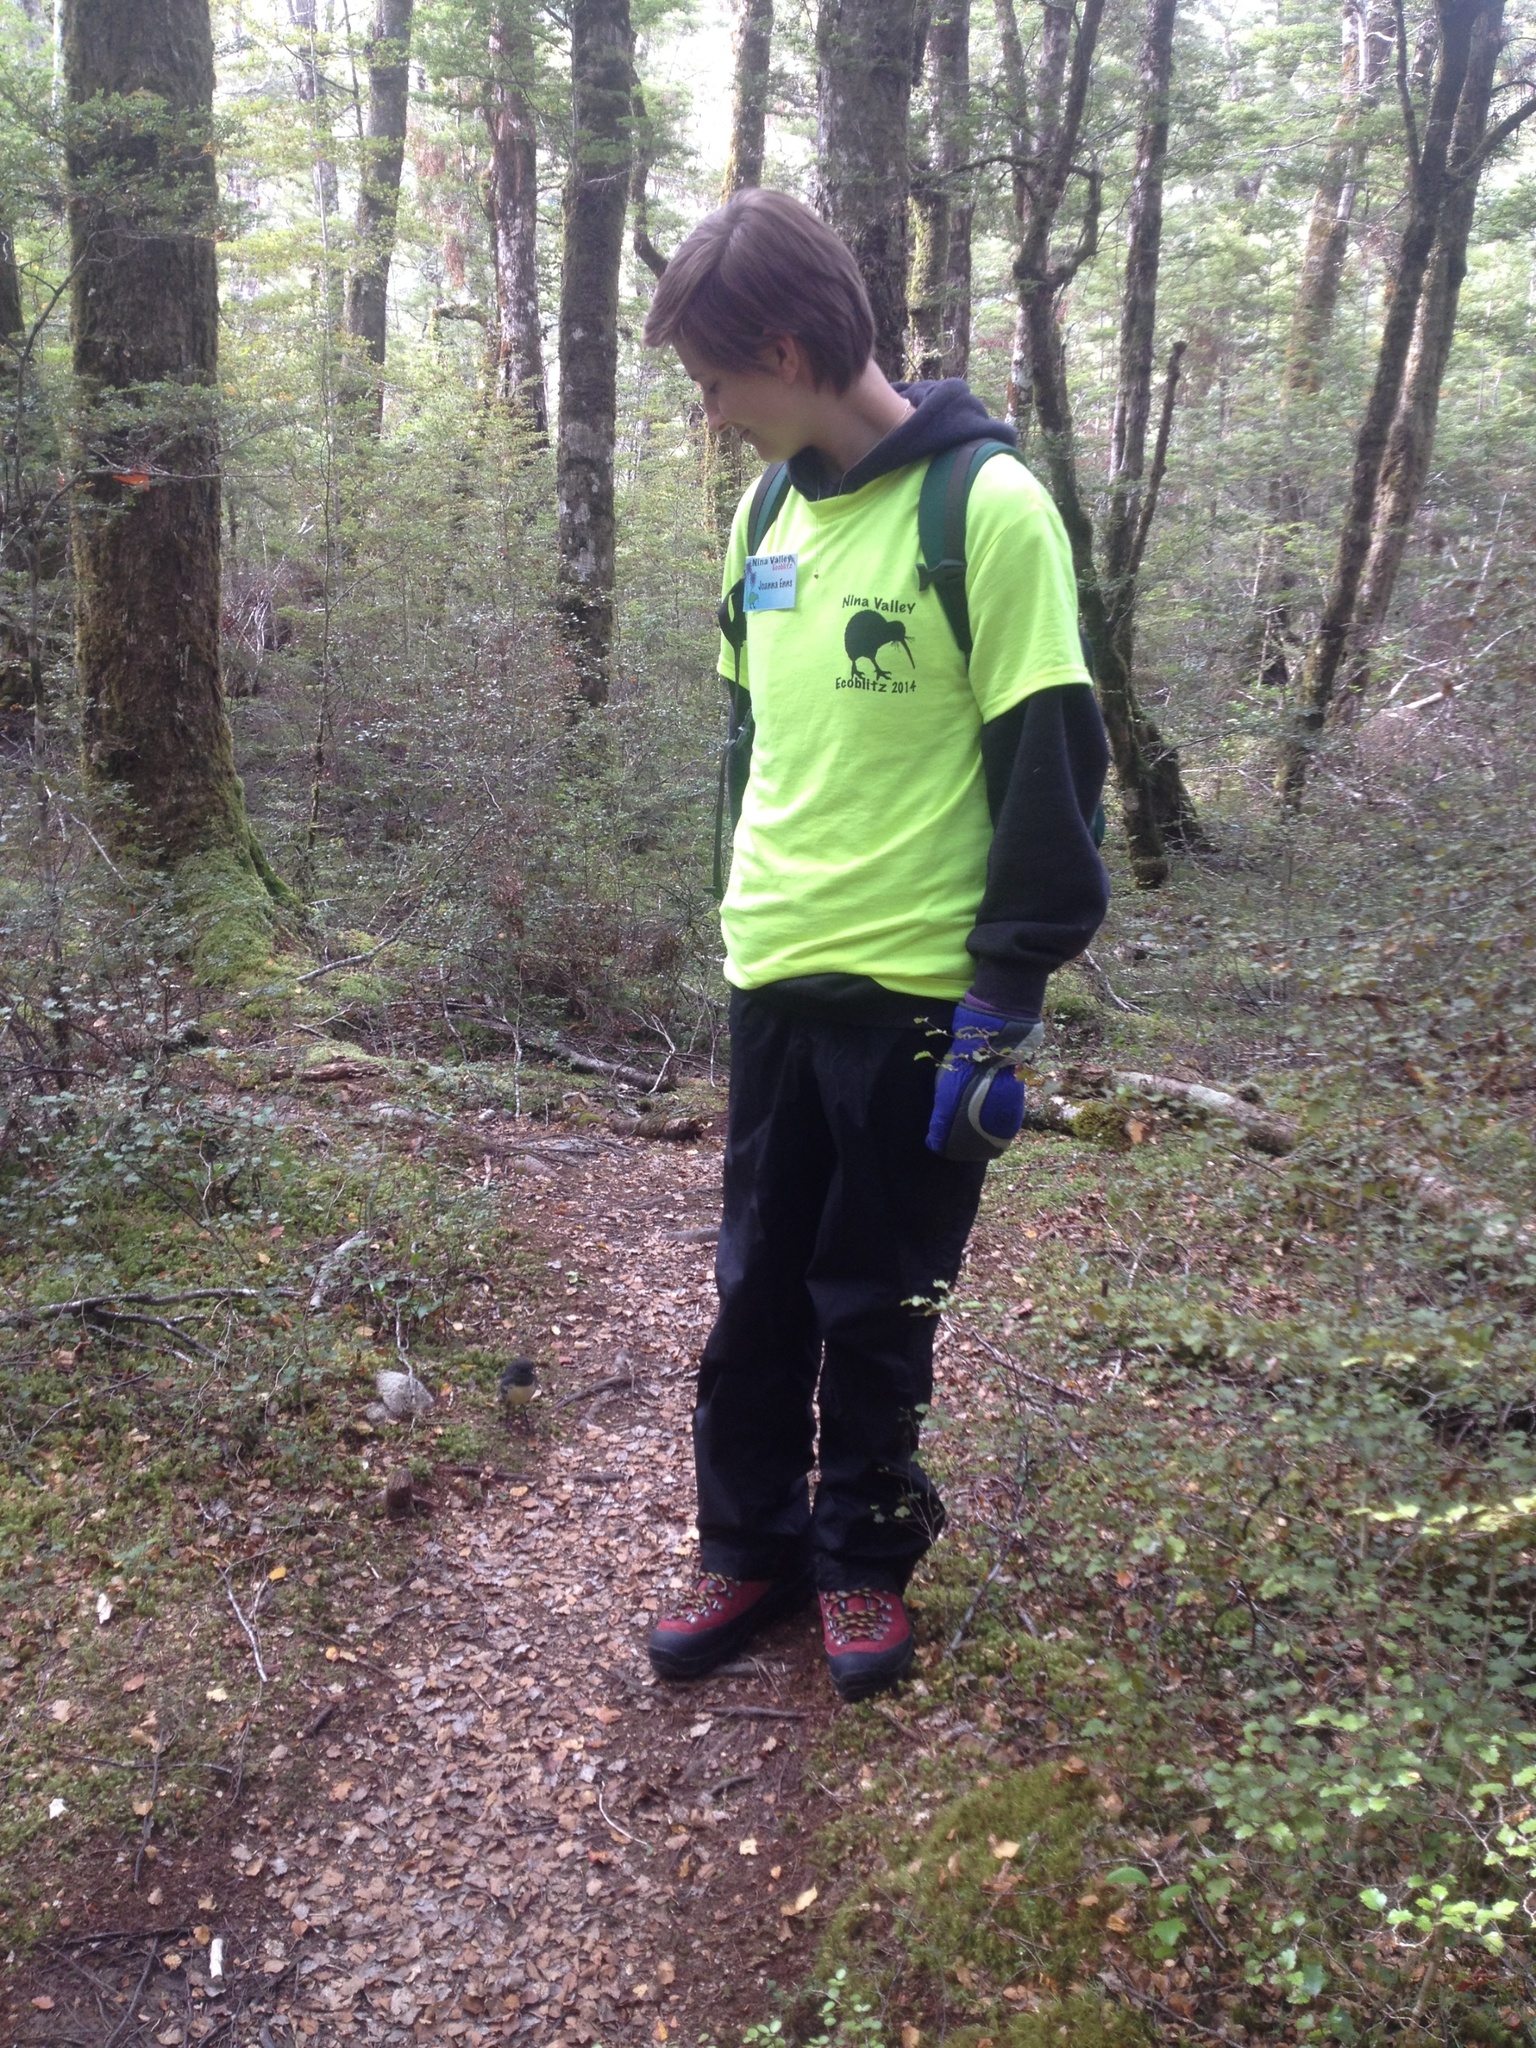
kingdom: Animalia
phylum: Chordata
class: Aves
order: Passeriformes
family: Petroicidae
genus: Petroica
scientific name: Petroica australis
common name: New zealand robin
